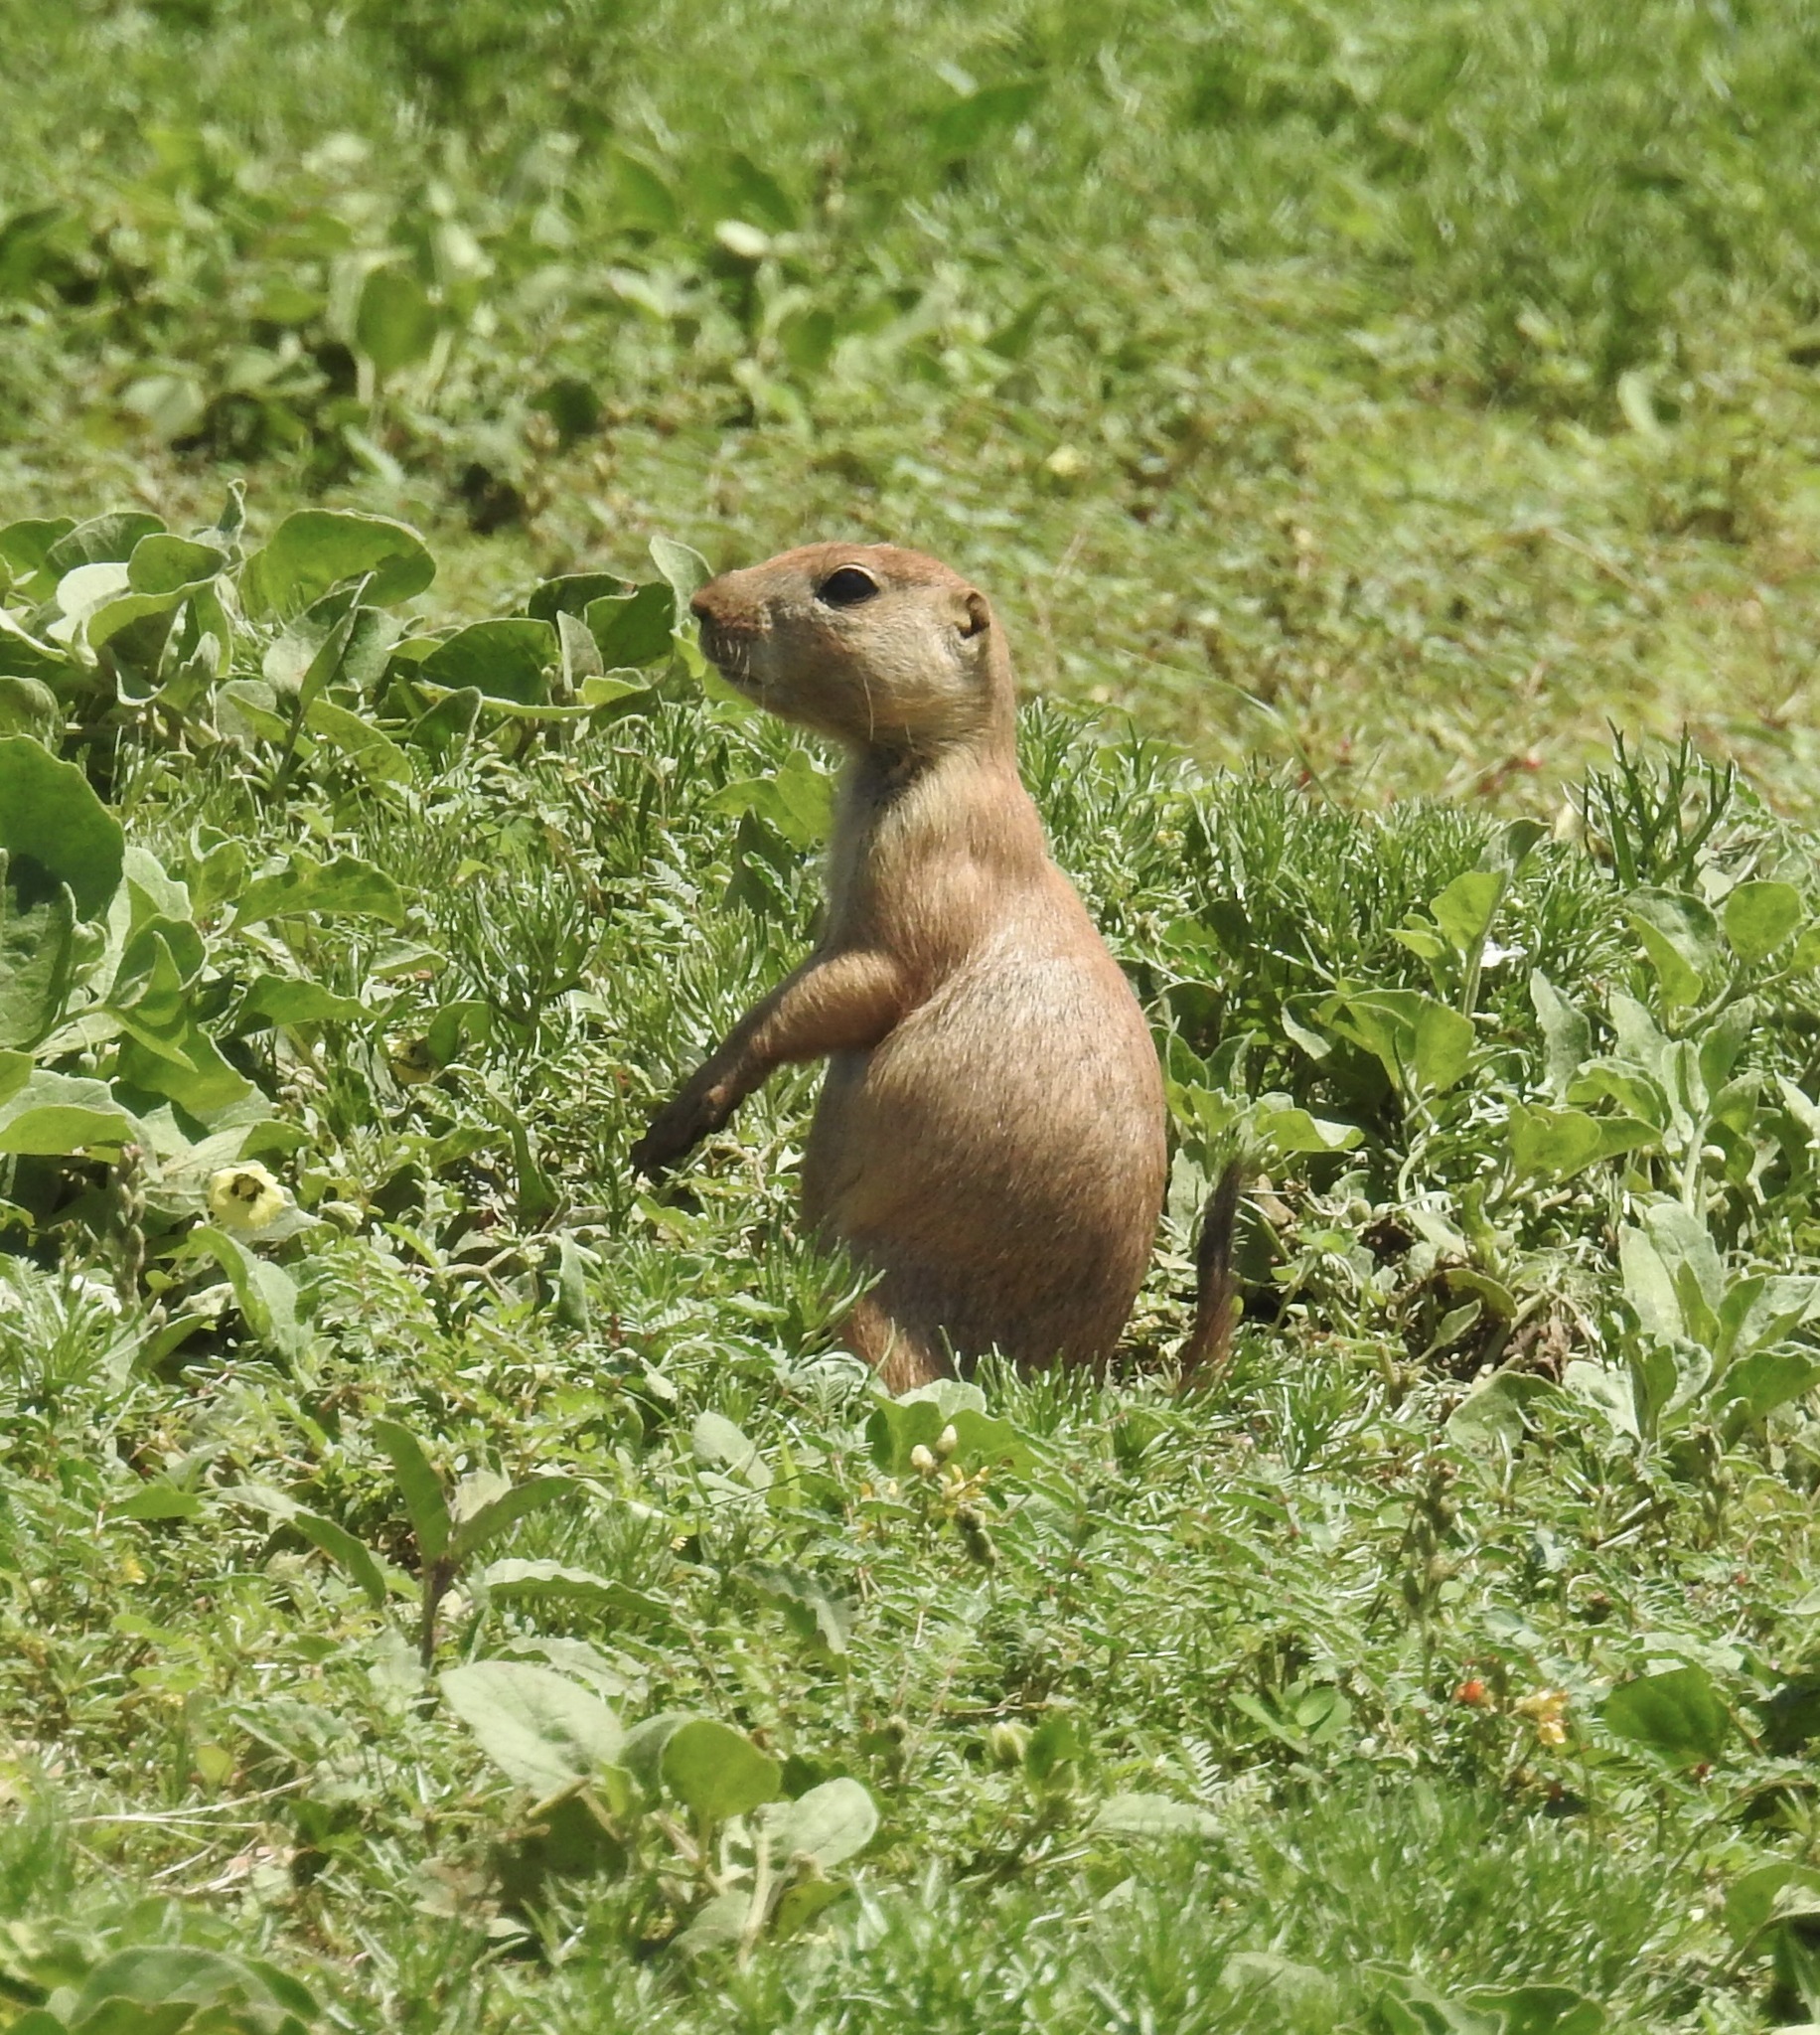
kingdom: Animalia
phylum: Chordata
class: Mammalia
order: Rodentia
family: Sciuridae
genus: Cynomys
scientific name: Cynomys ludovicianus
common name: Black-tailed prairie dog
